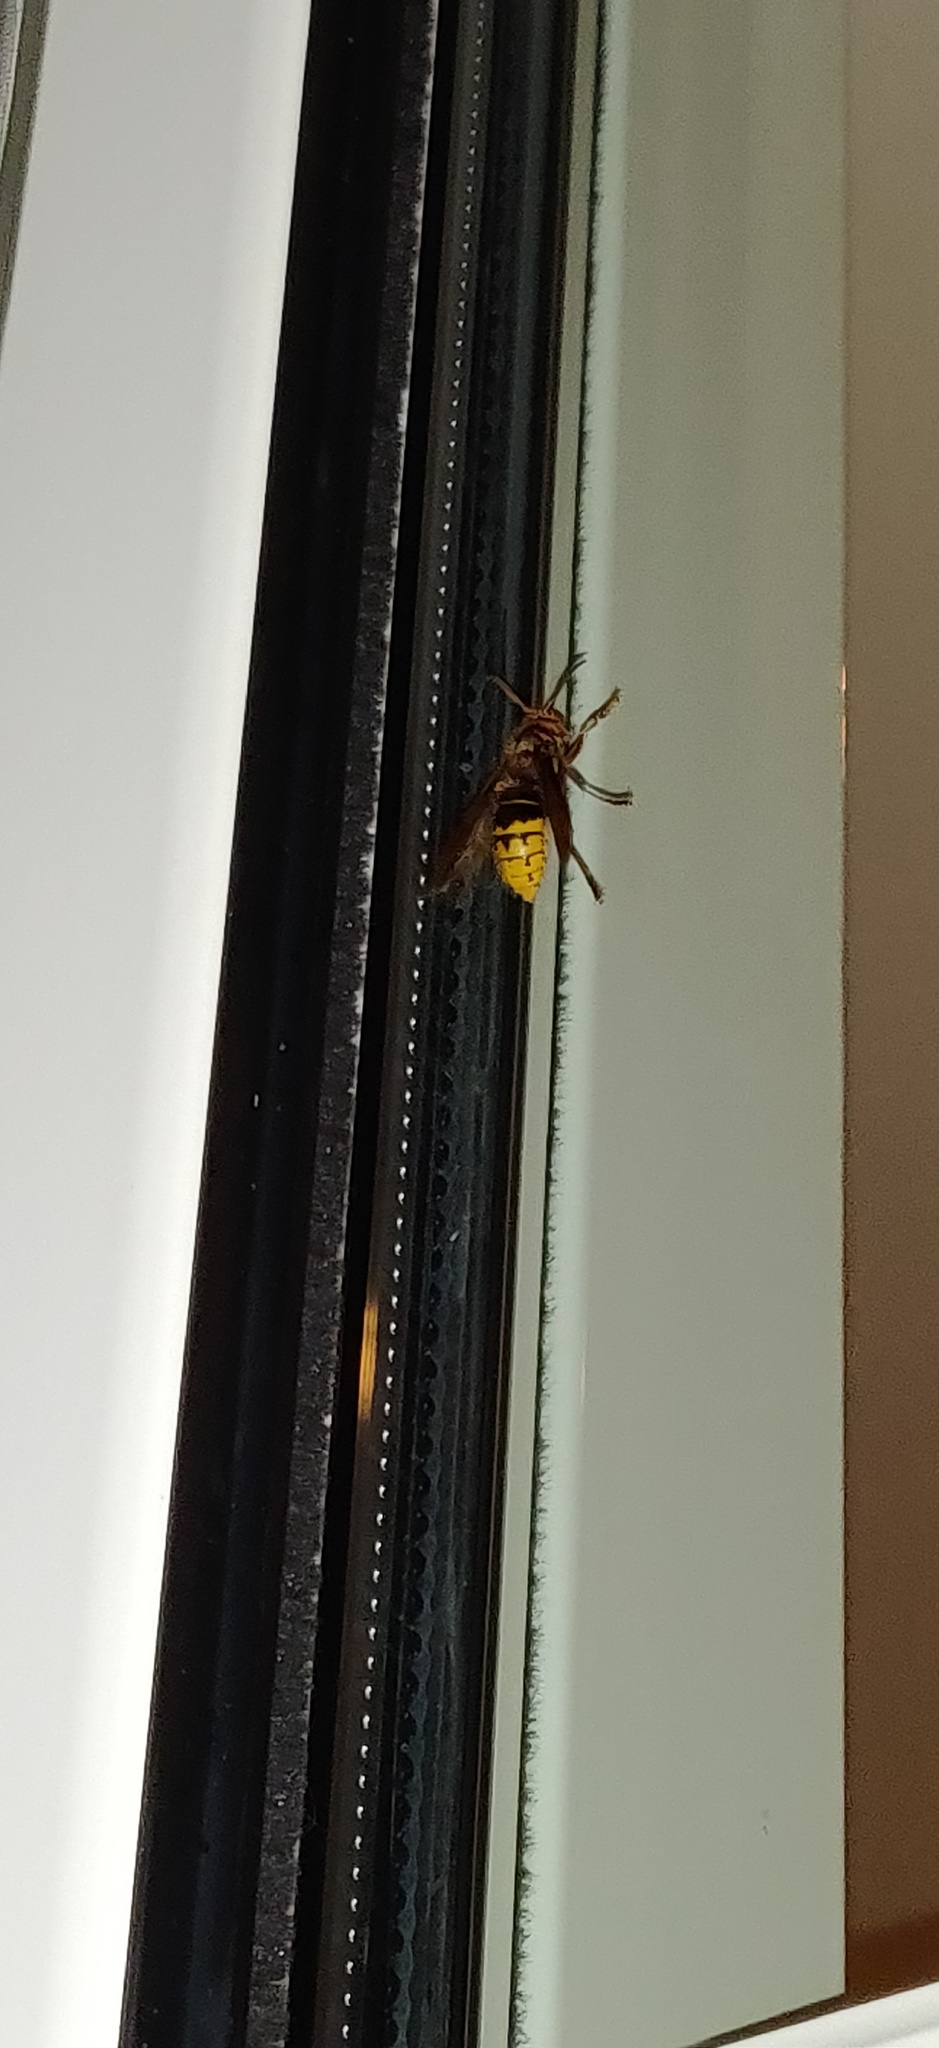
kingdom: Animalia
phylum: Arthropoda
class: Insecta
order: Hymenoptera
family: Vespidae
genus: Vespa
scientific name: Vespa crabro
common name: Hornet
